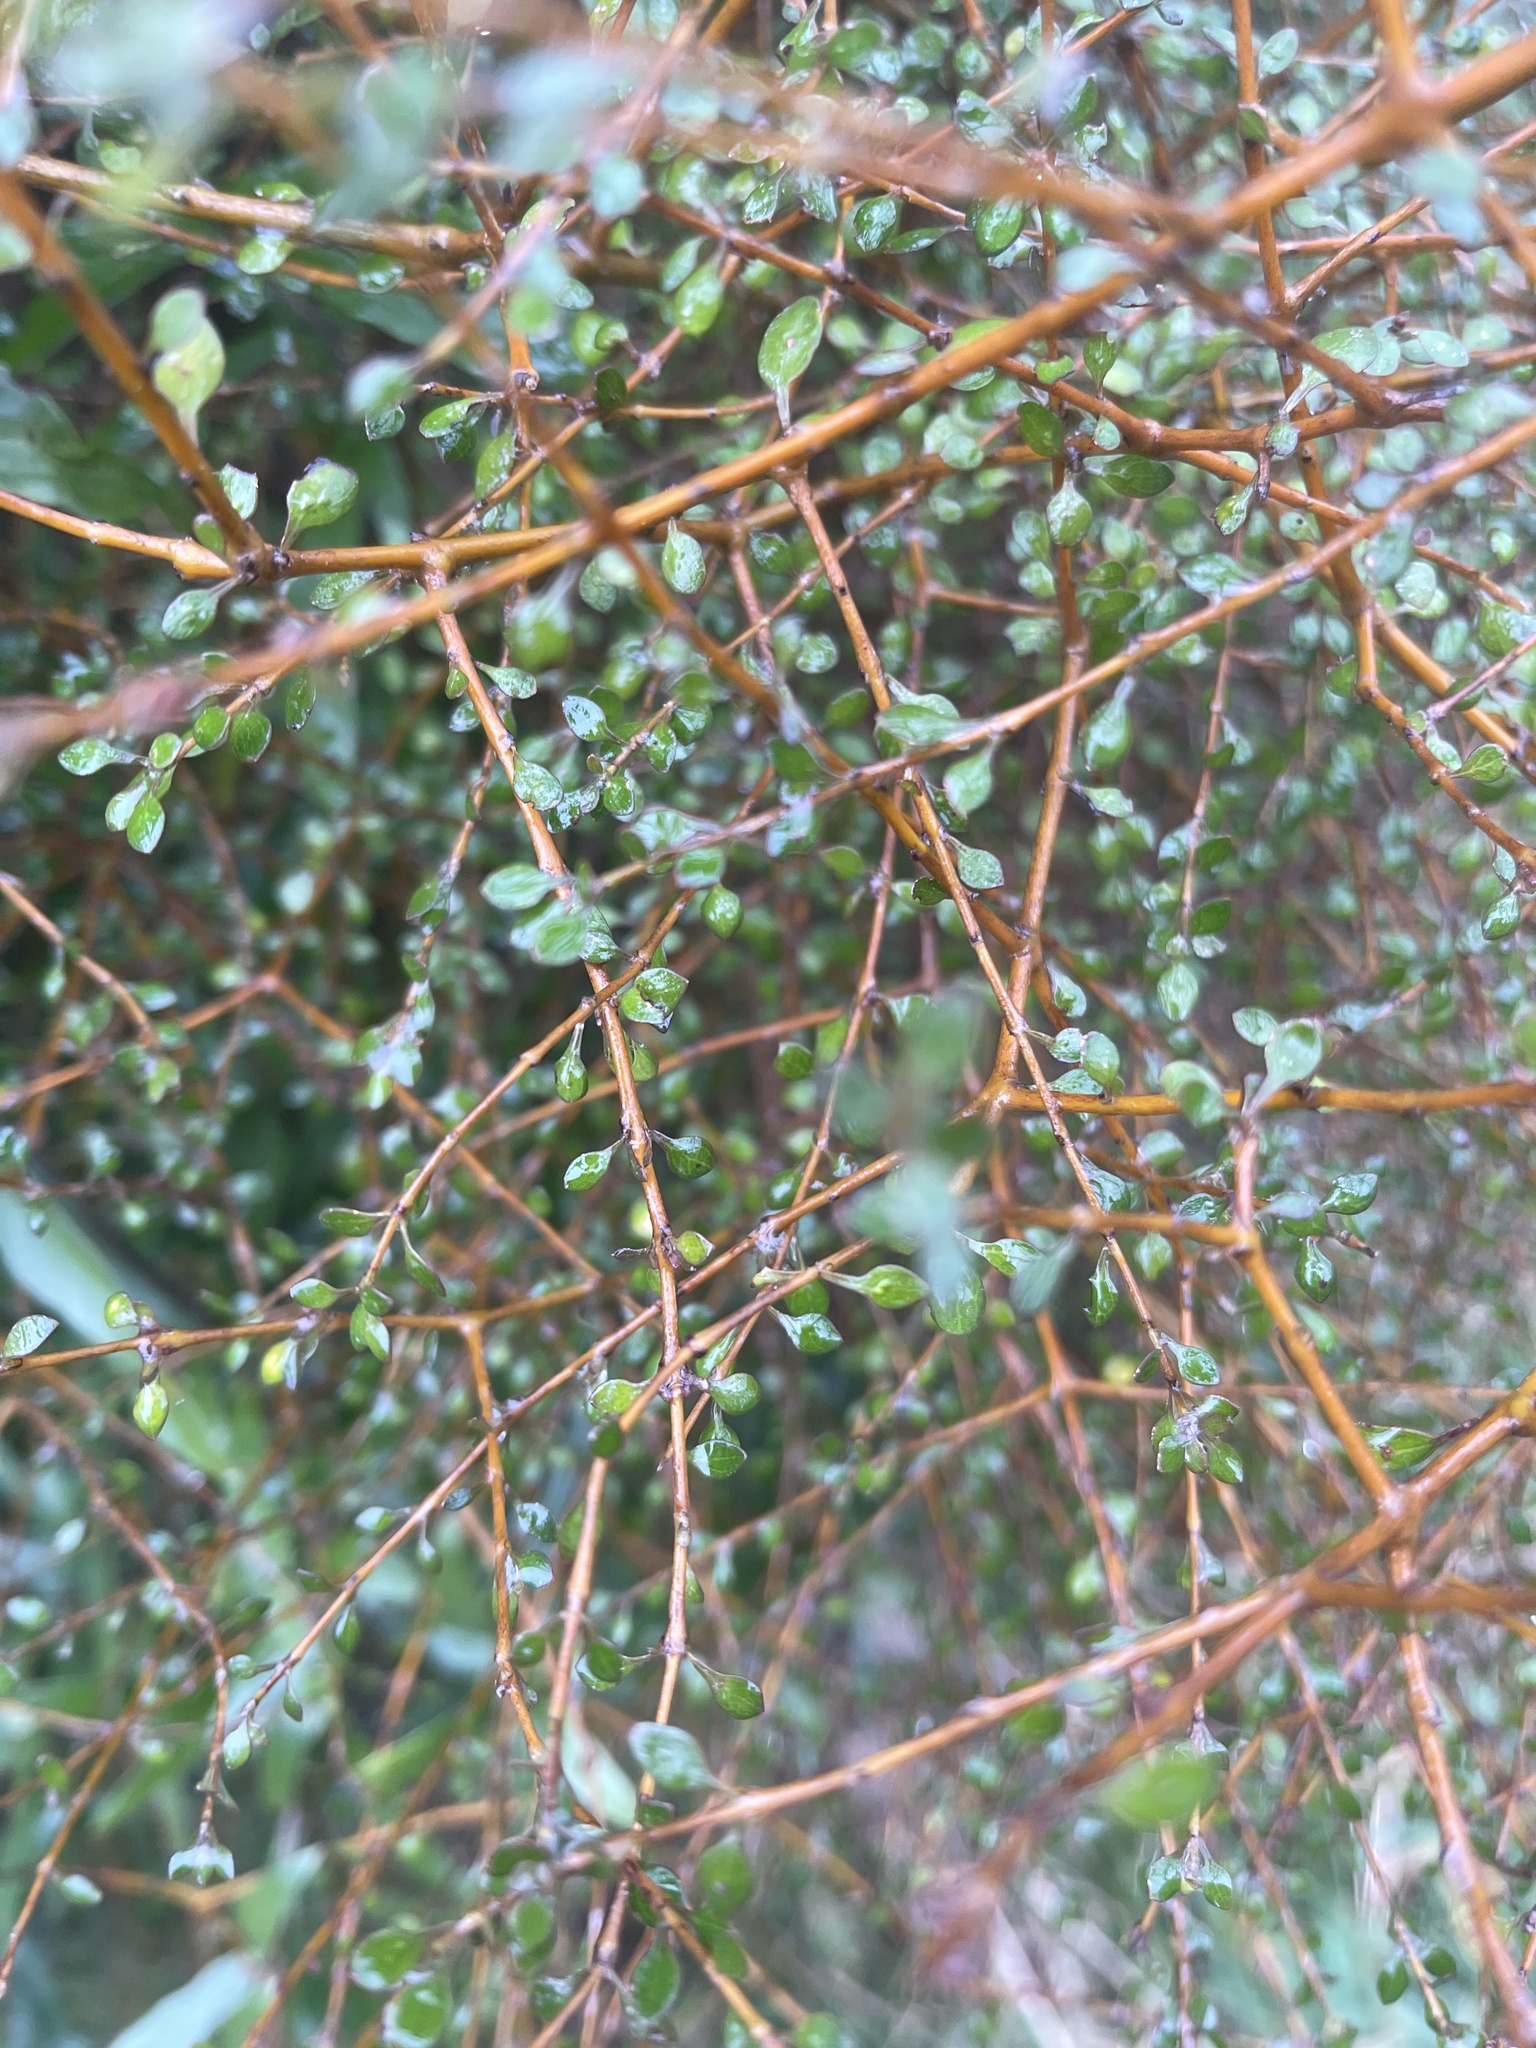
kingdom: Plantae
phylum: Tracheophyta
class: Magnoliopsida
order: Gentianales
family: Rubiaceae
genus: Coprosma
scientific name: Coprosma virescens
